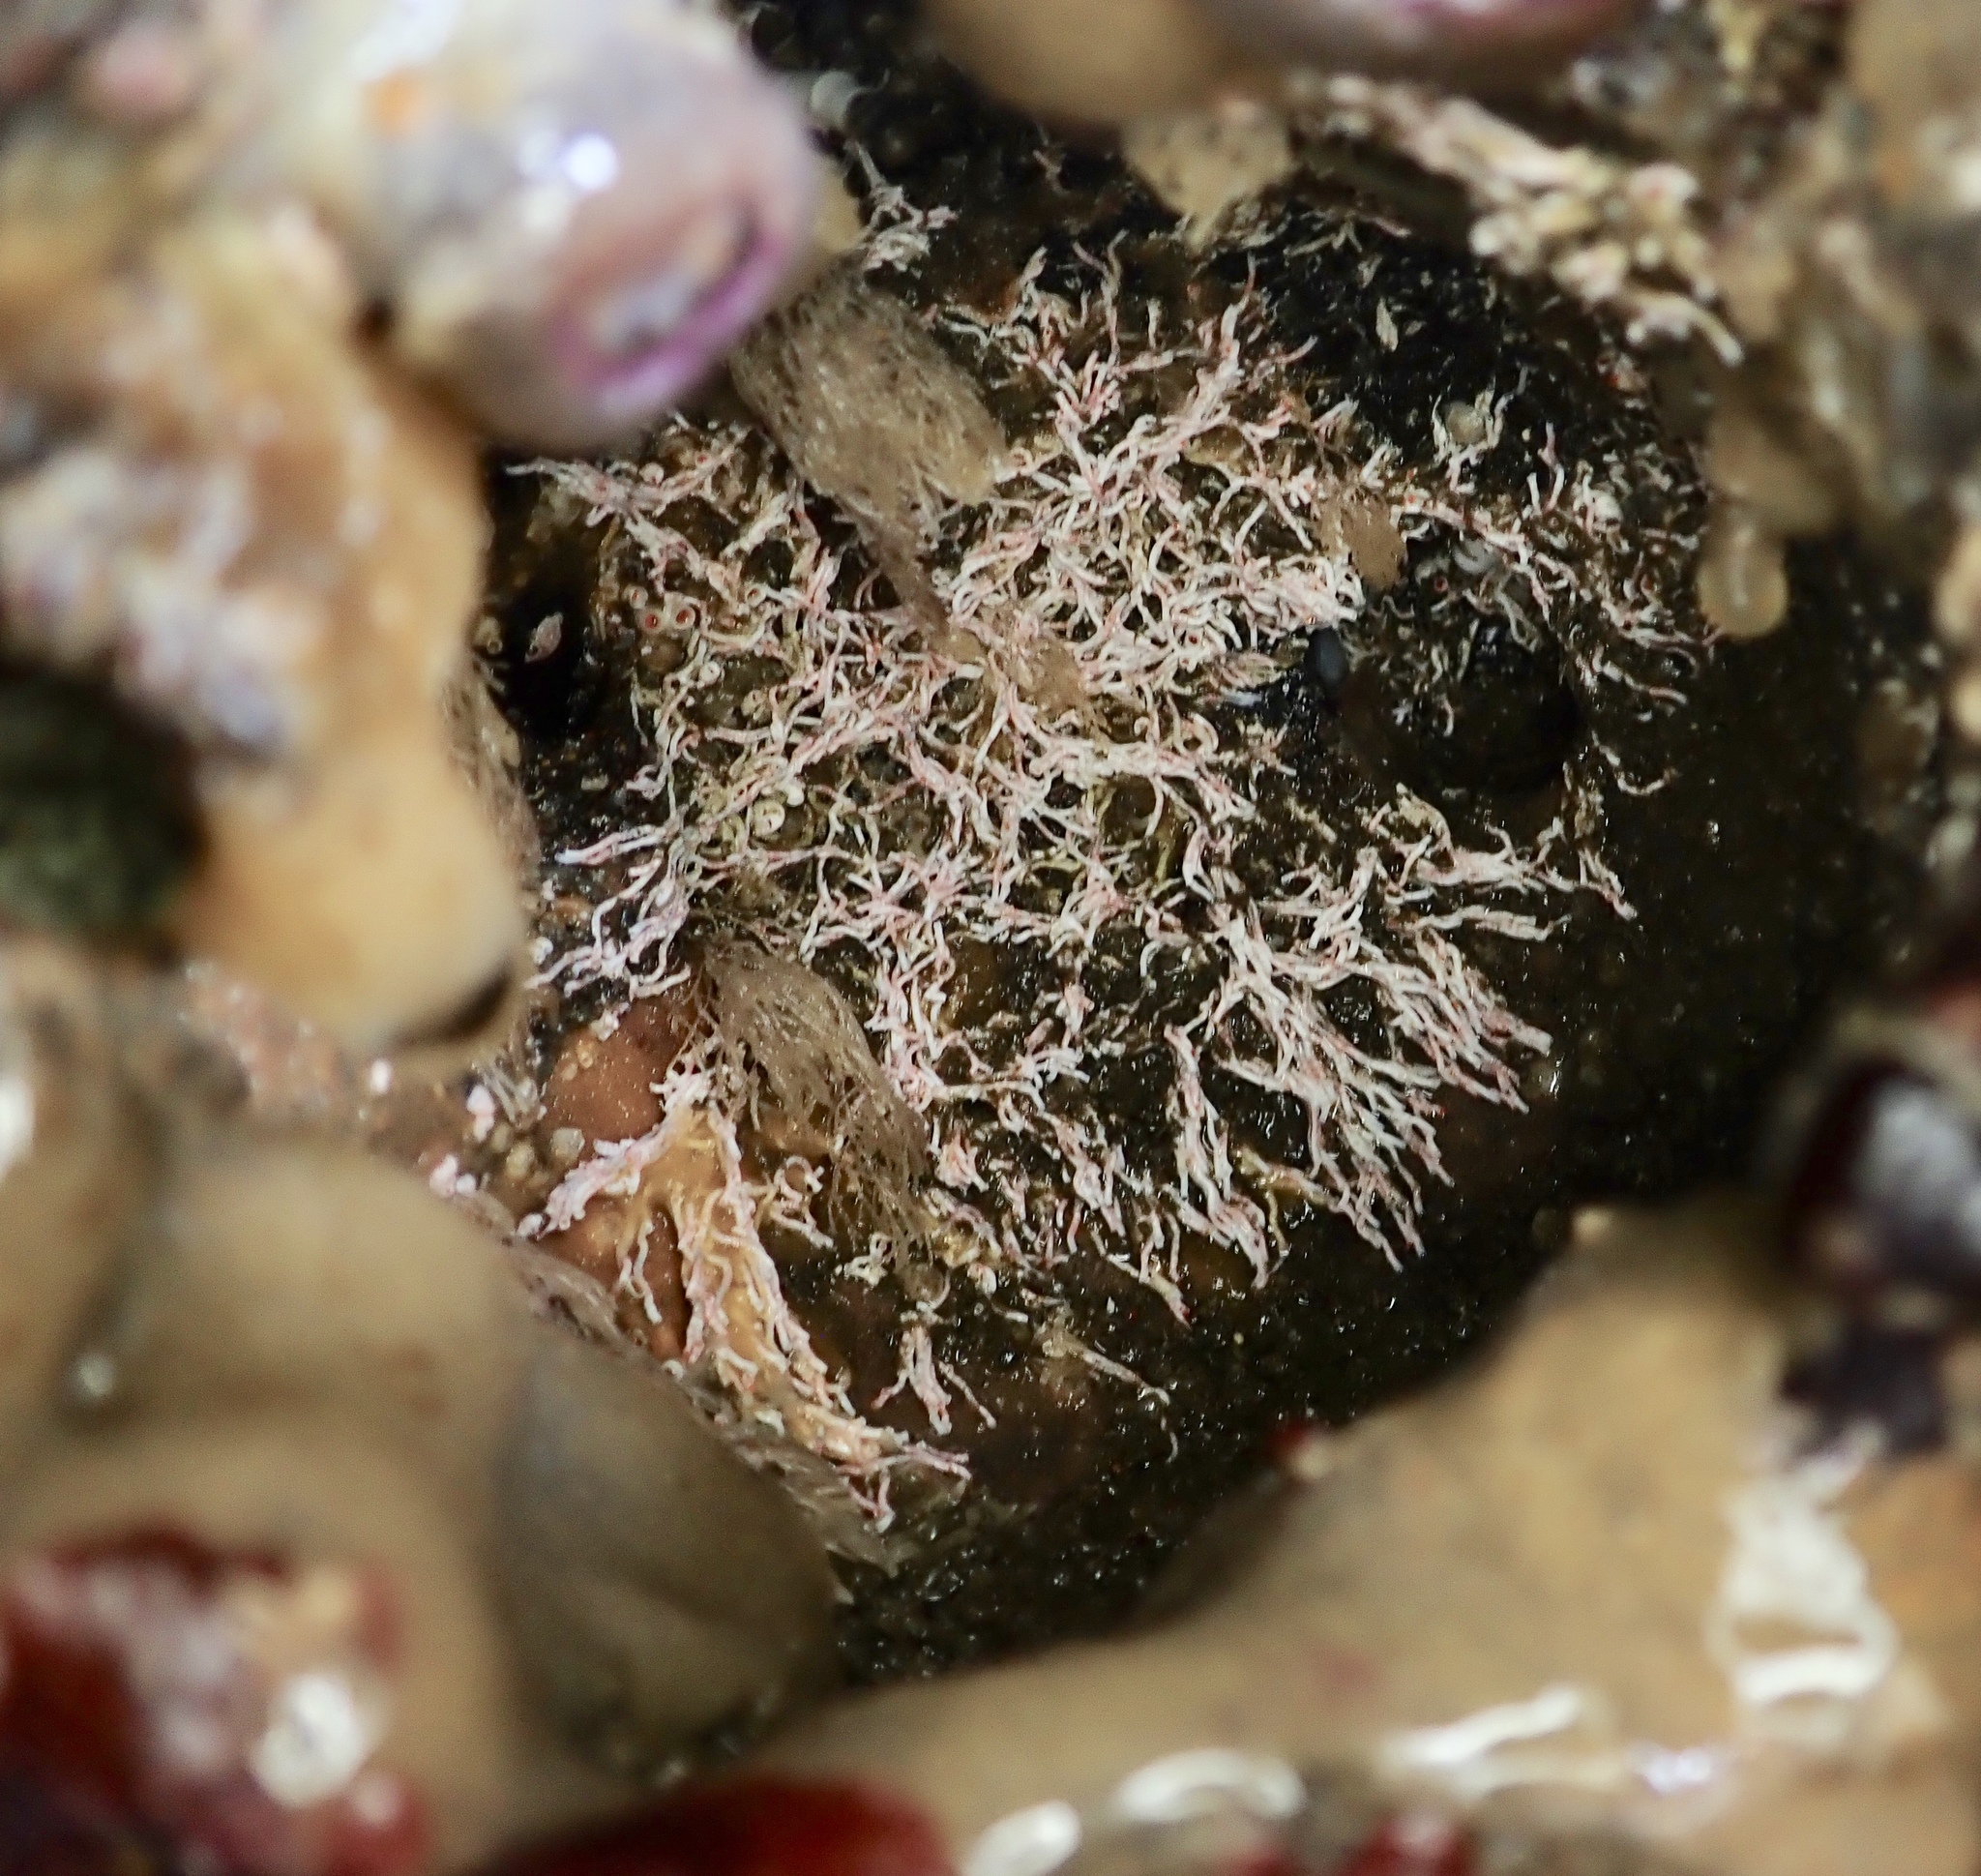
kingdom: Animalia
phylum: Annelida
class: Polychaeta
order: Sabellida
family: Serpulidae
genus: Salmacina
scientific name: Salmacina tribranchiata
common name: Fouling serpulid
